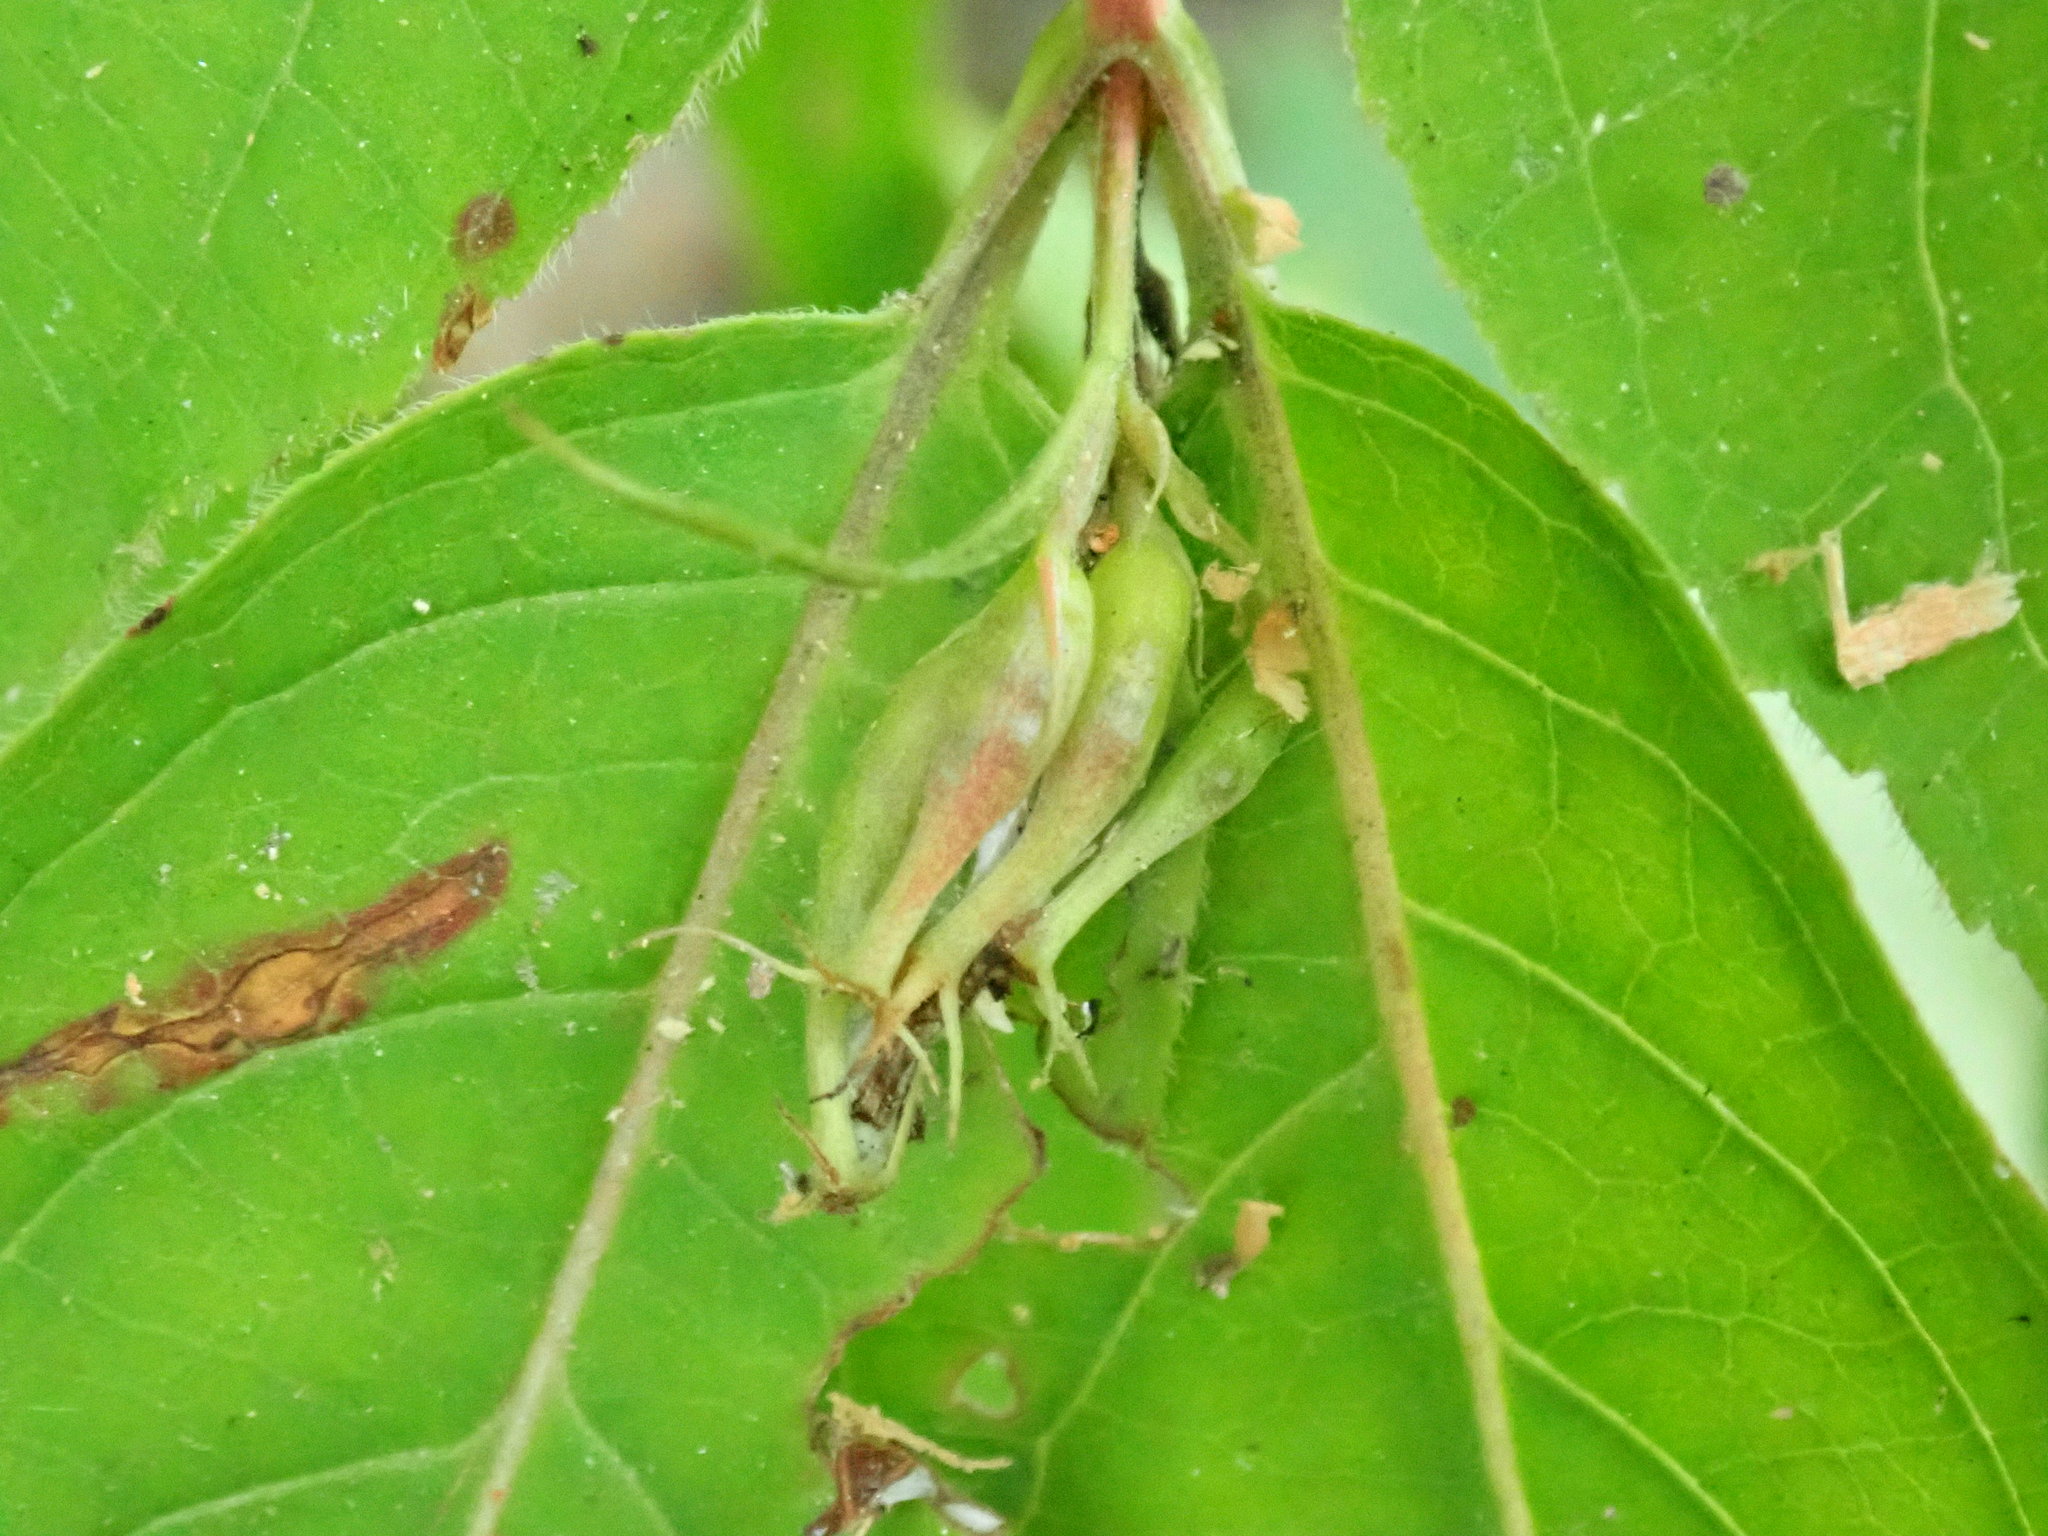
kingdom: Plantae
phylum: Tracheophyta
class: Magnoliopsida
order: Dipsacales
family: Caprifoliaceae
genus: Diervilla
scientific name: Diervilla lonicera
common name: Bush-honeysuckle
